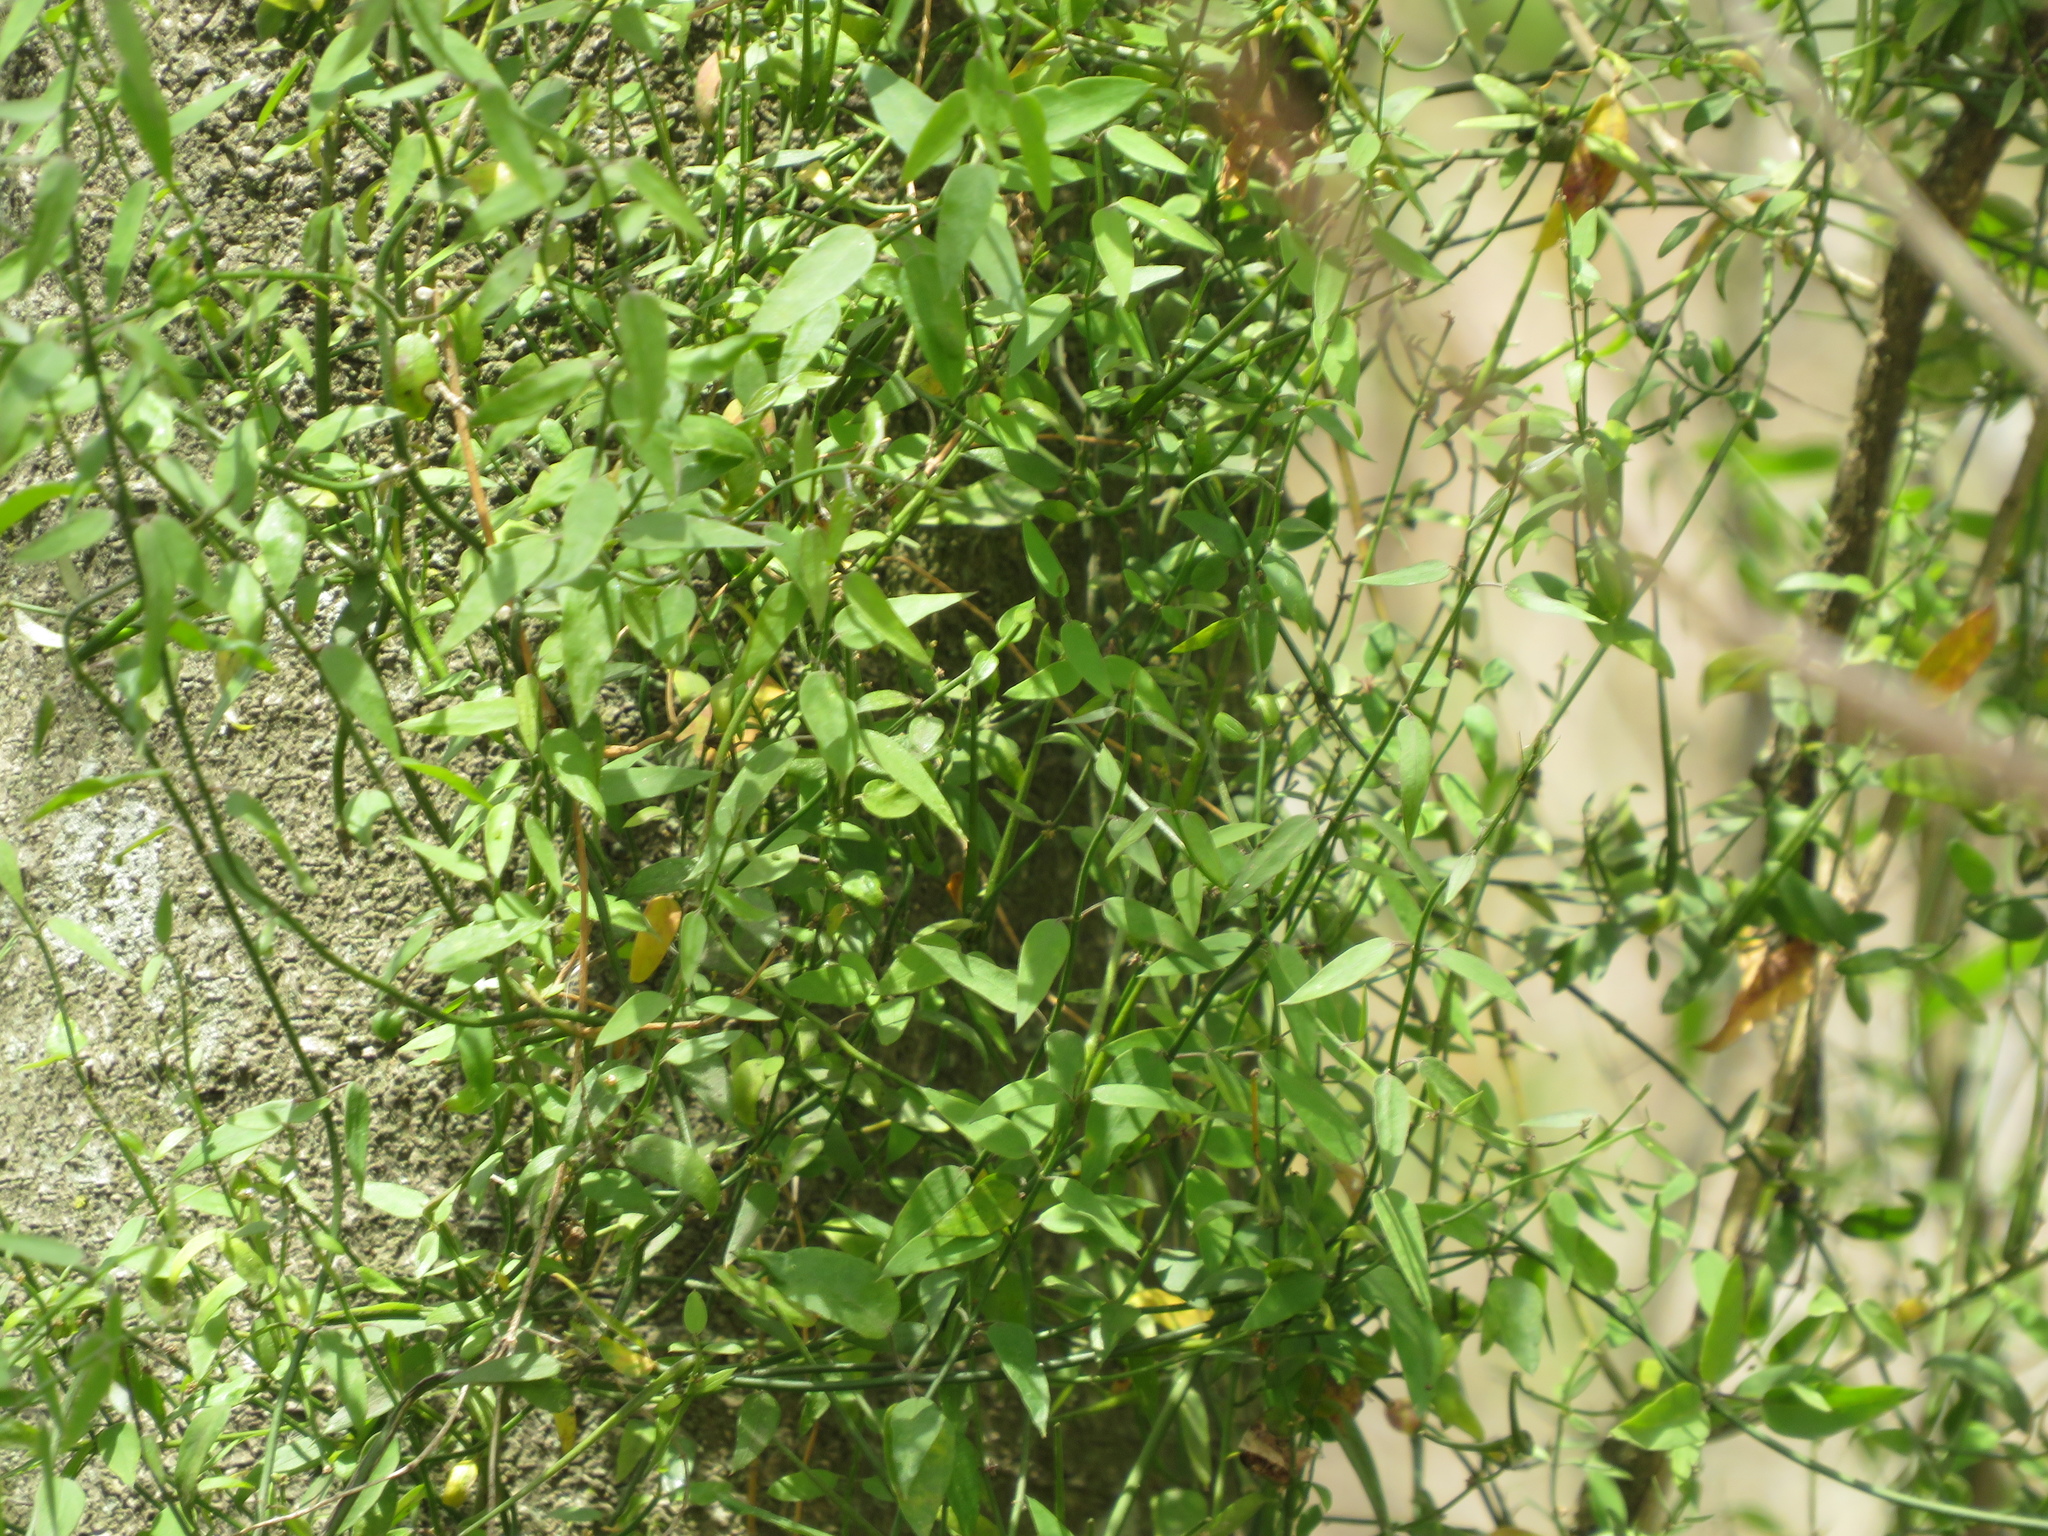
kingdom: Plantae
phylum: Tracheophyta
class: Magnoliopsida
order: Gentianales
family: Apocynaceae
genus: Orthosia
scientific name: Orthosia virgata
